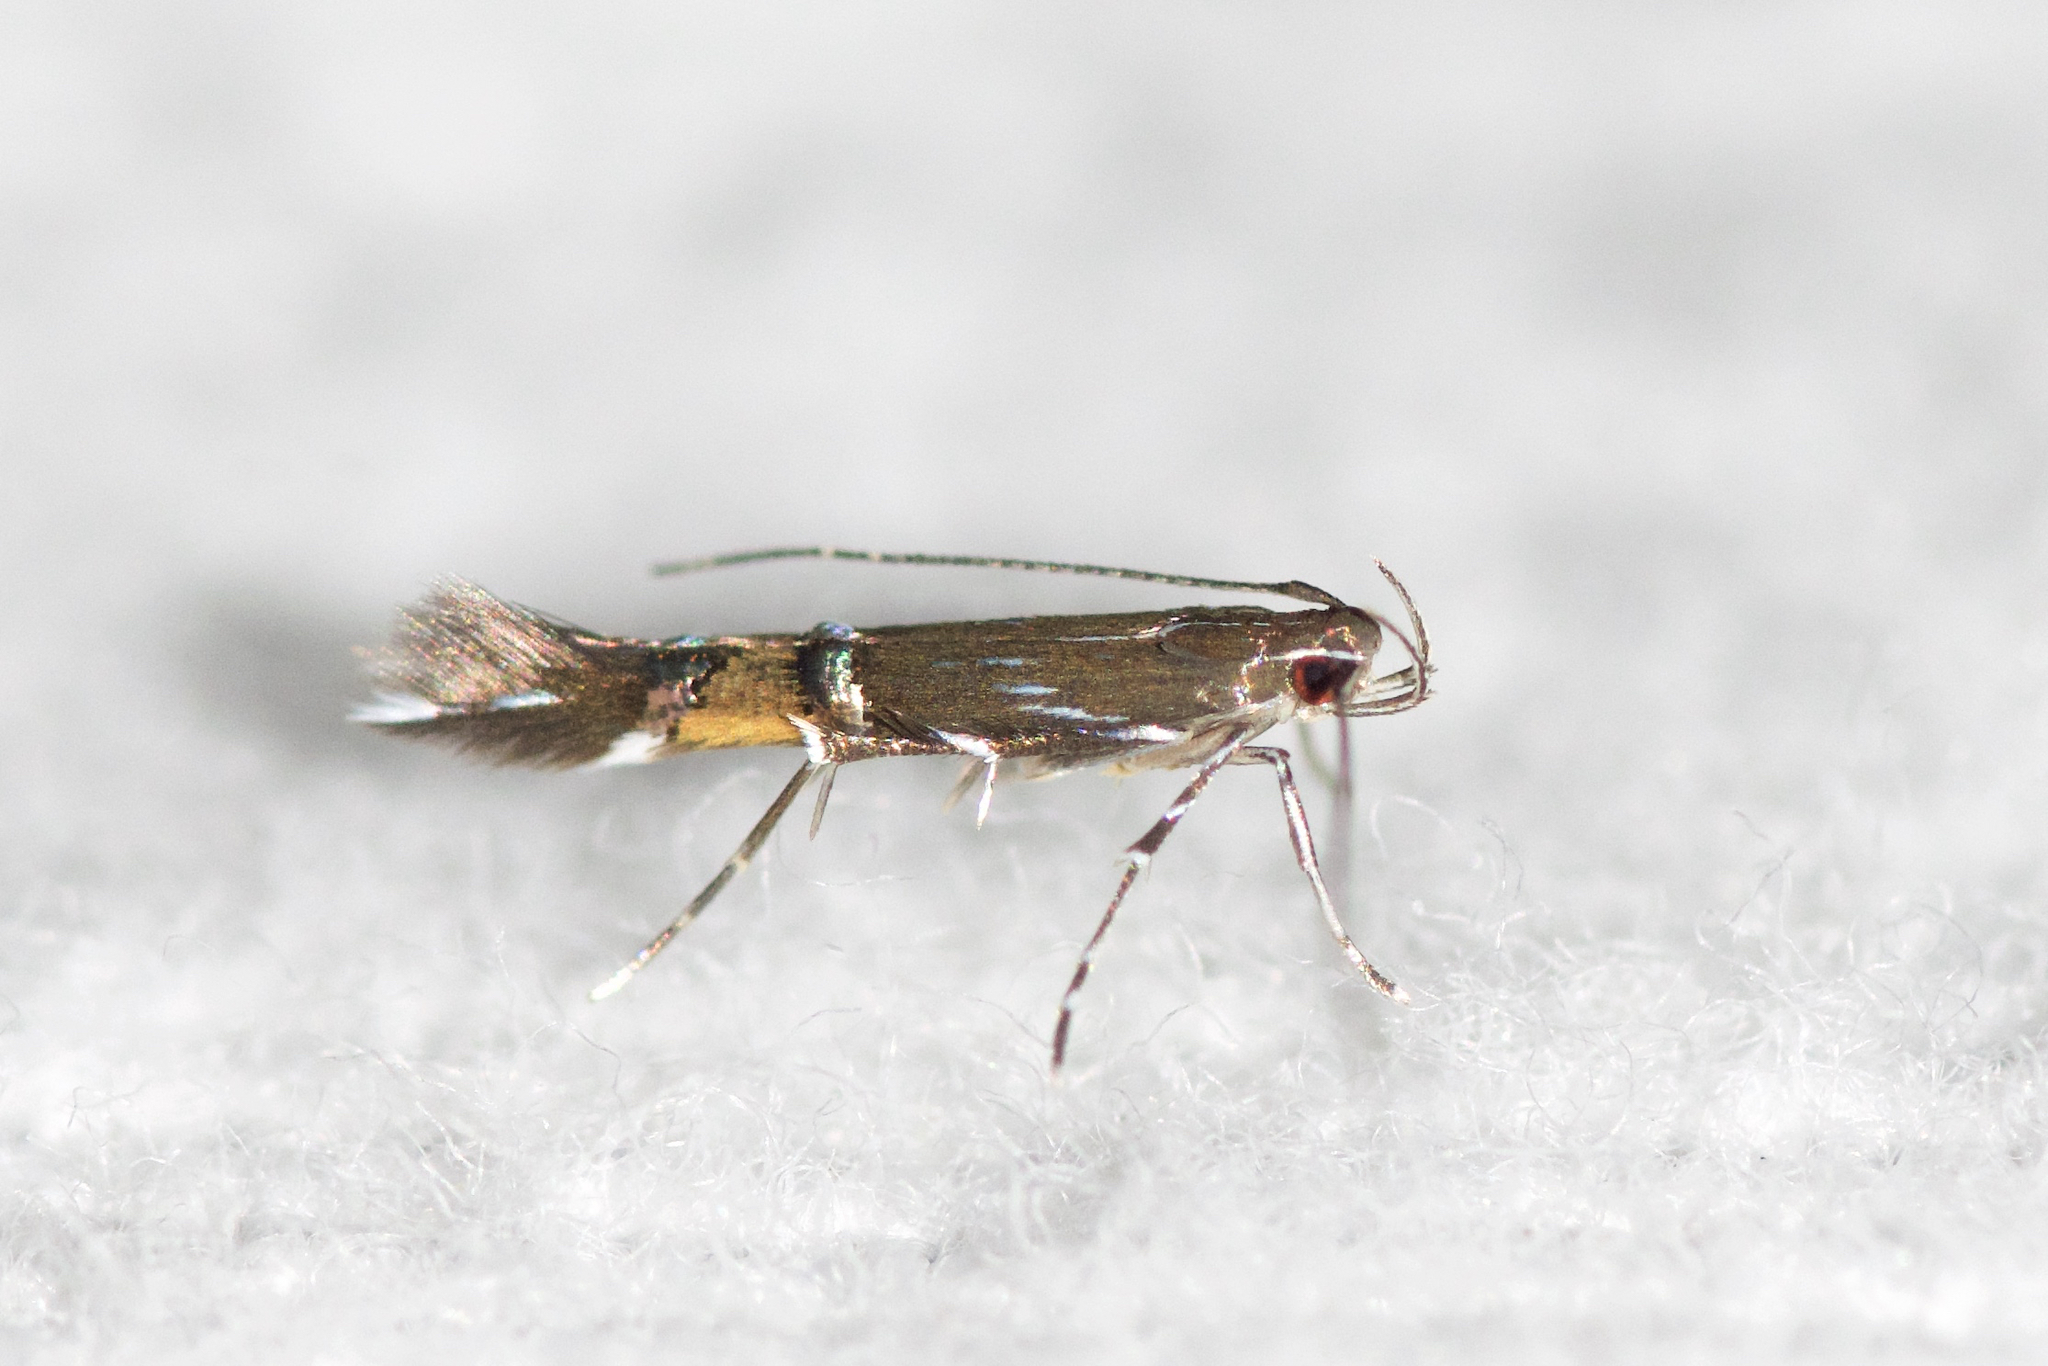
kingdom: Animalia
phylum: Arthropoda
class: Insecta
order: Lepidoptera
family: Cosmopterigidae
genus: Cosmopterix
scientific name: Cosmopterix pulchrimella
